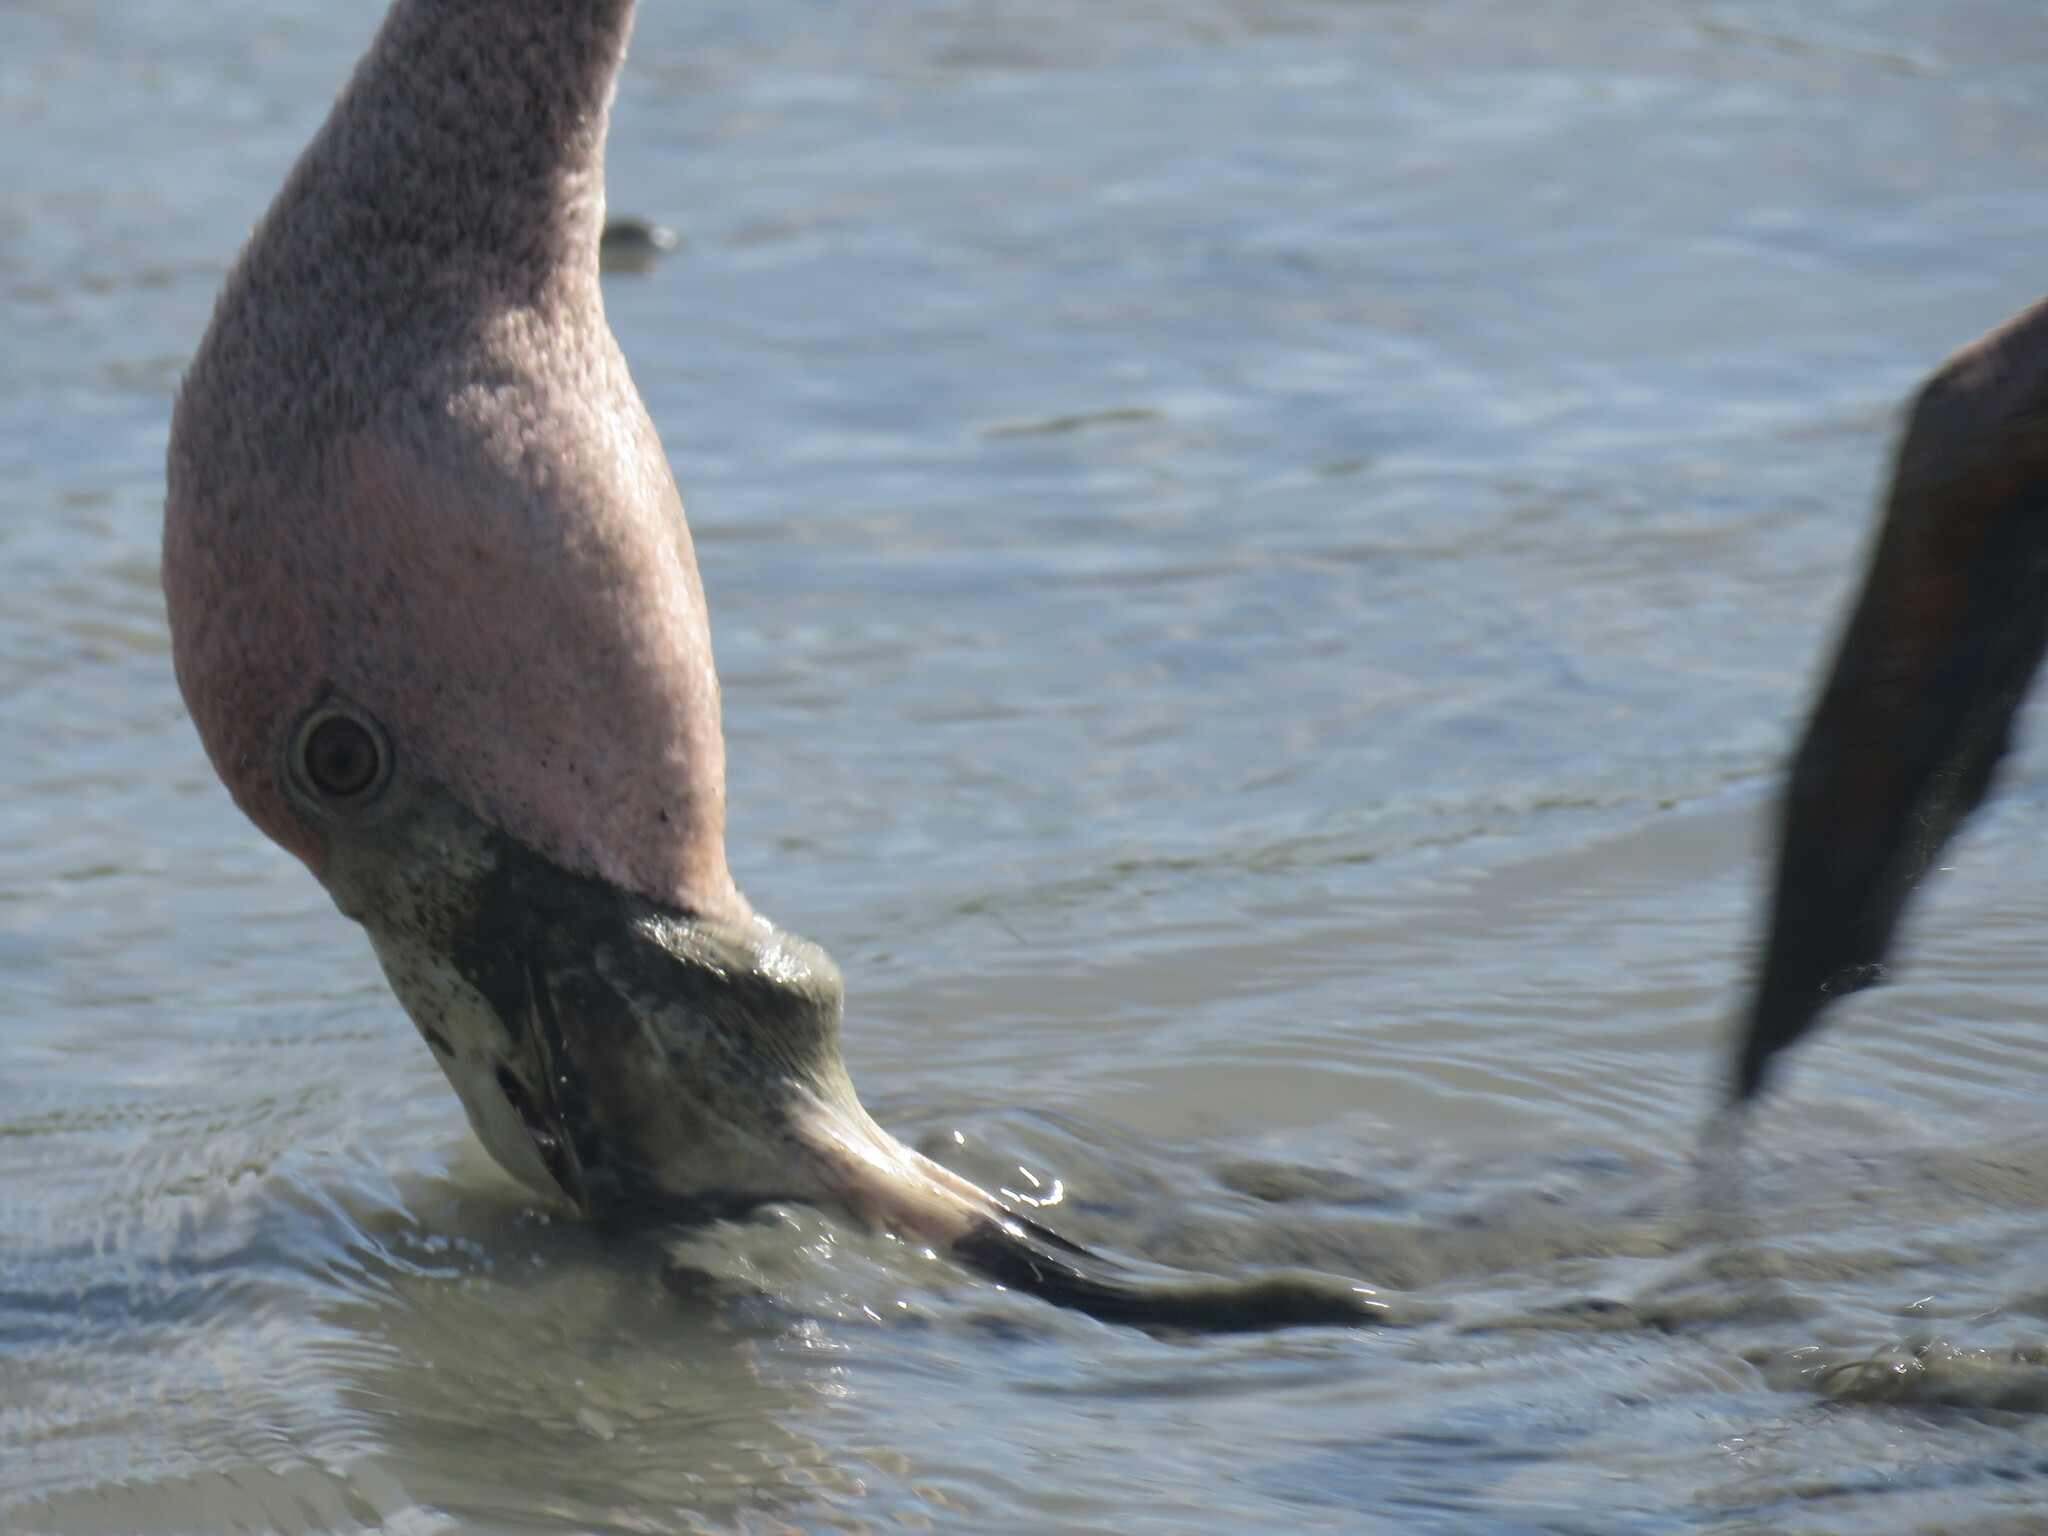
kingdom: Animalia
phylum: Chordata
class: Aves
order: Phoenicopteriformes
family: Phoenicopteridae
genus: Phoenicopterus
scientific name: Phoenicopterus ruber
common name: American flamingo
